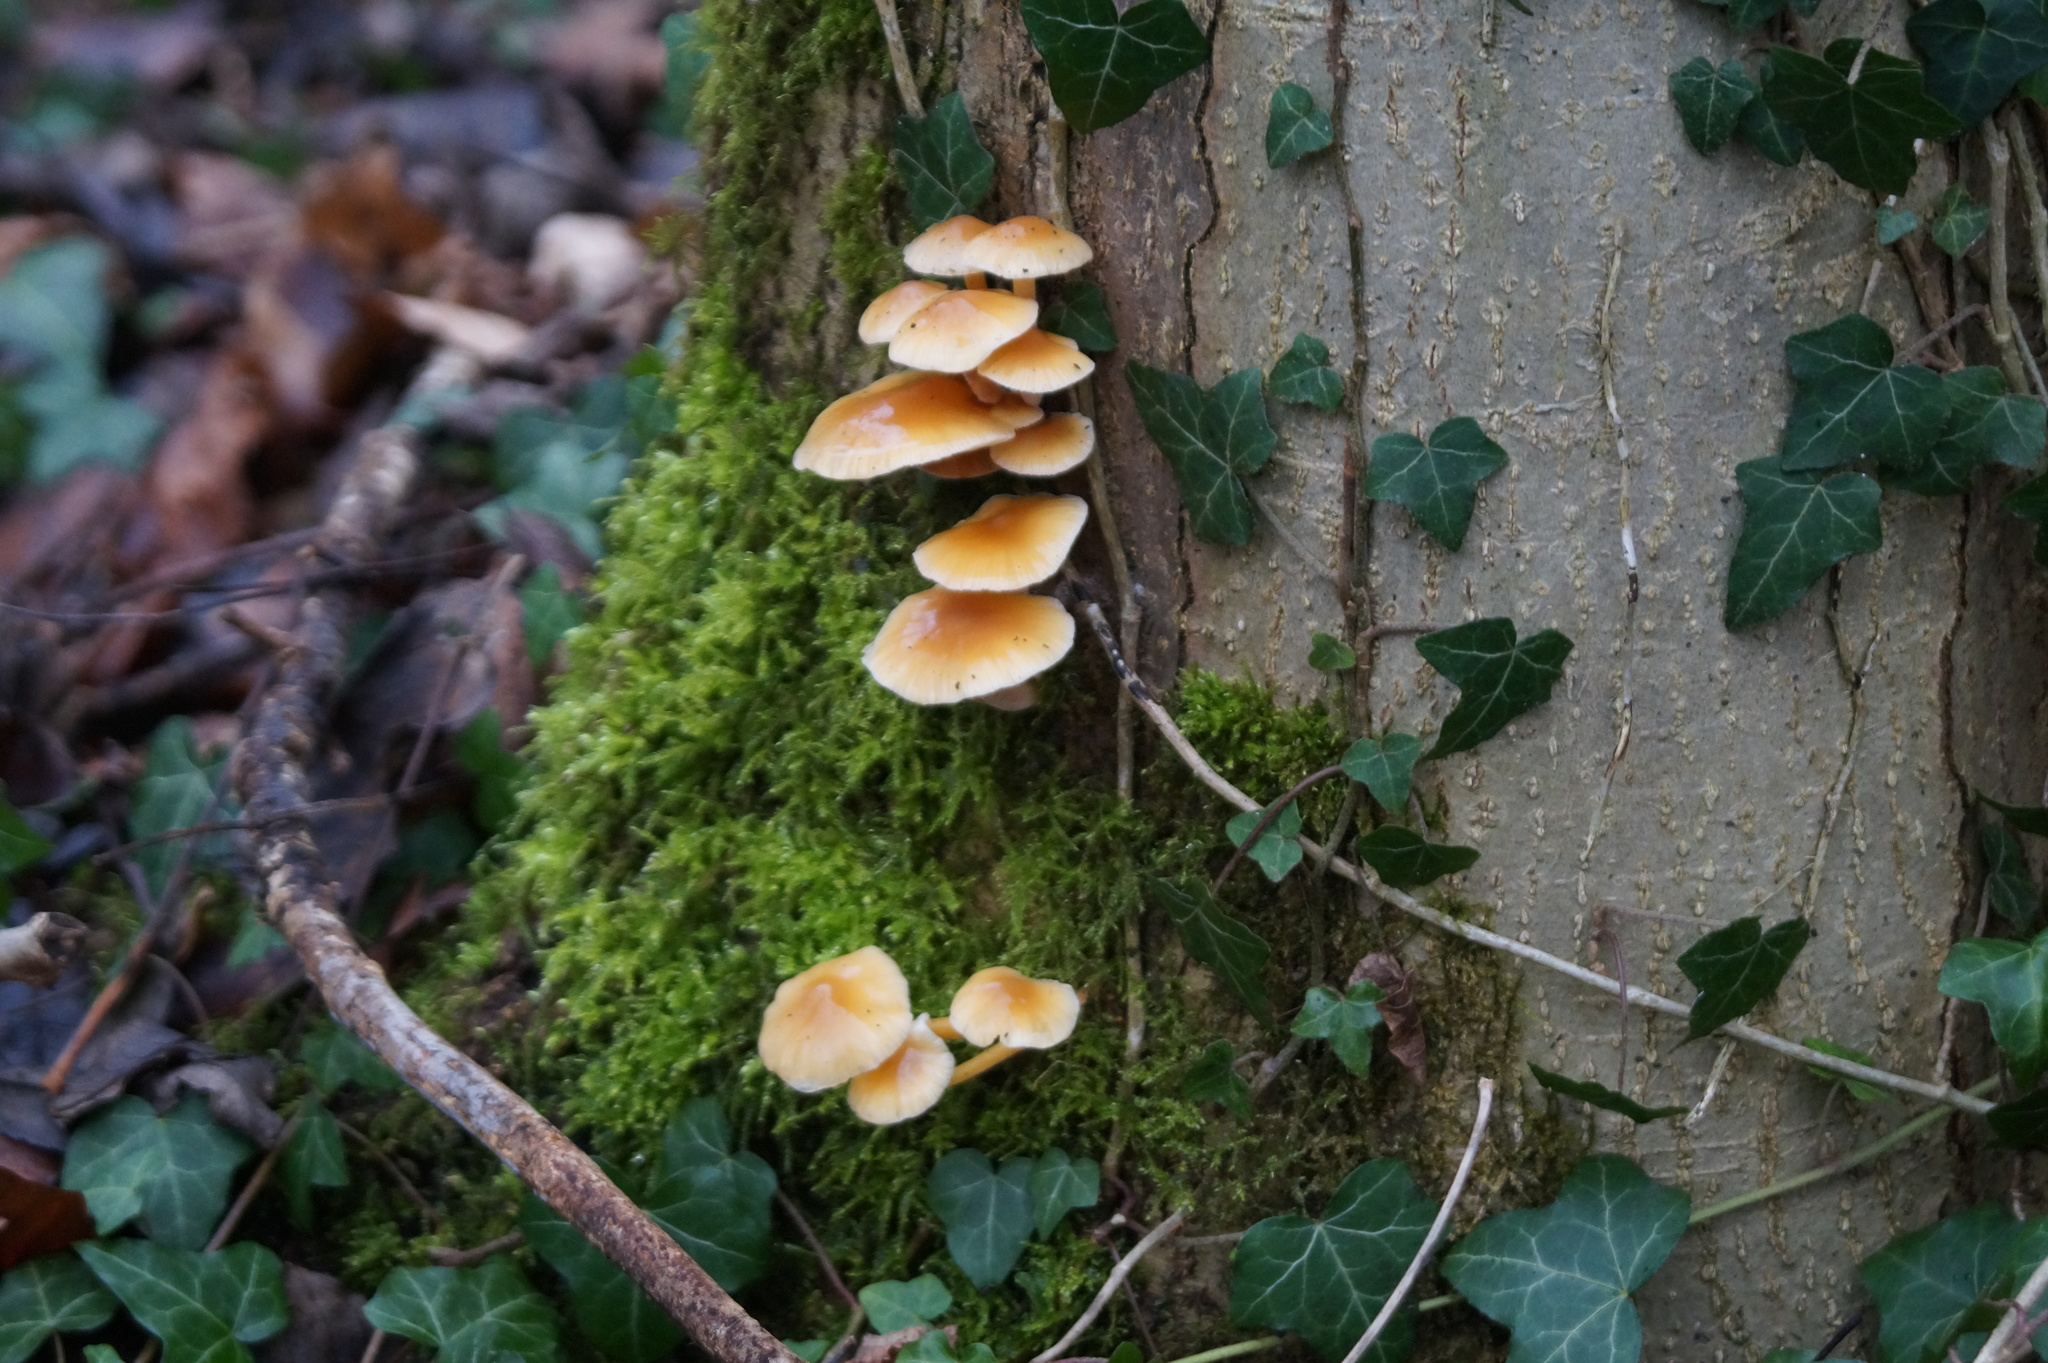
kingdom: Fungi
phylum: Basidiomycota
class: Agaricomycetes
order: Agaricales
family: Physalacriaceae
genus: Flammulina
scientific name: Flammulina
